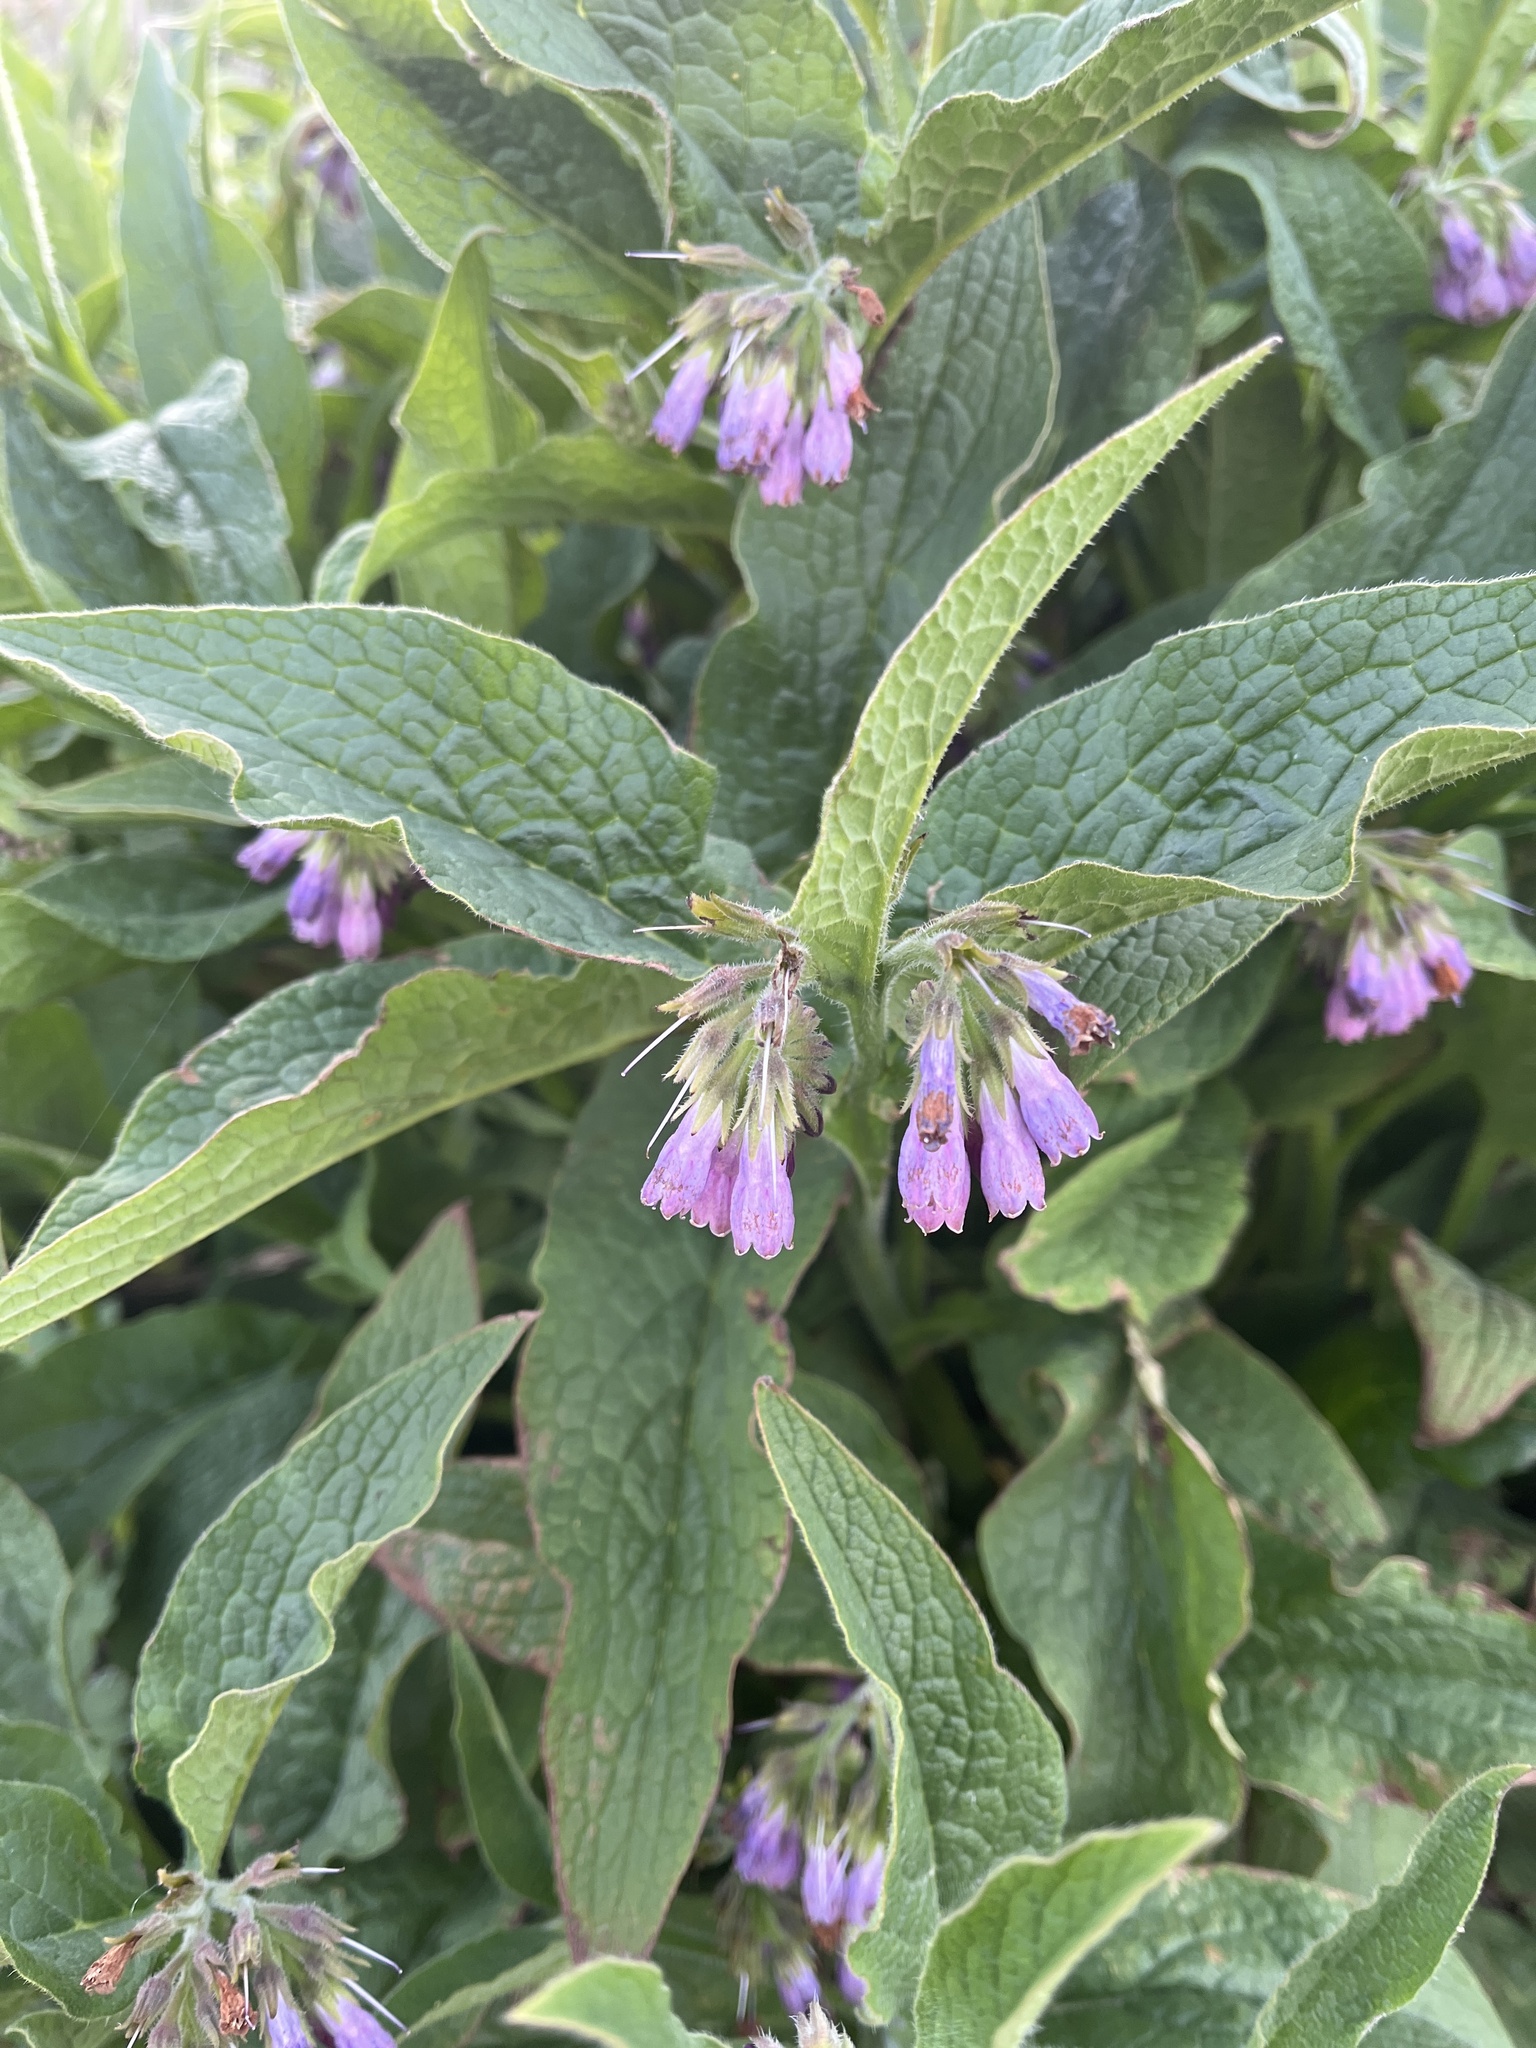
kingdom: Plantae
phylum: Tracheophyta
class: Magnoliopsida
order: Boraginales
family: Boraginaceae
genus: Symphytum
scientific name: Symphytum uplandicum
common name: Russian comfrey
